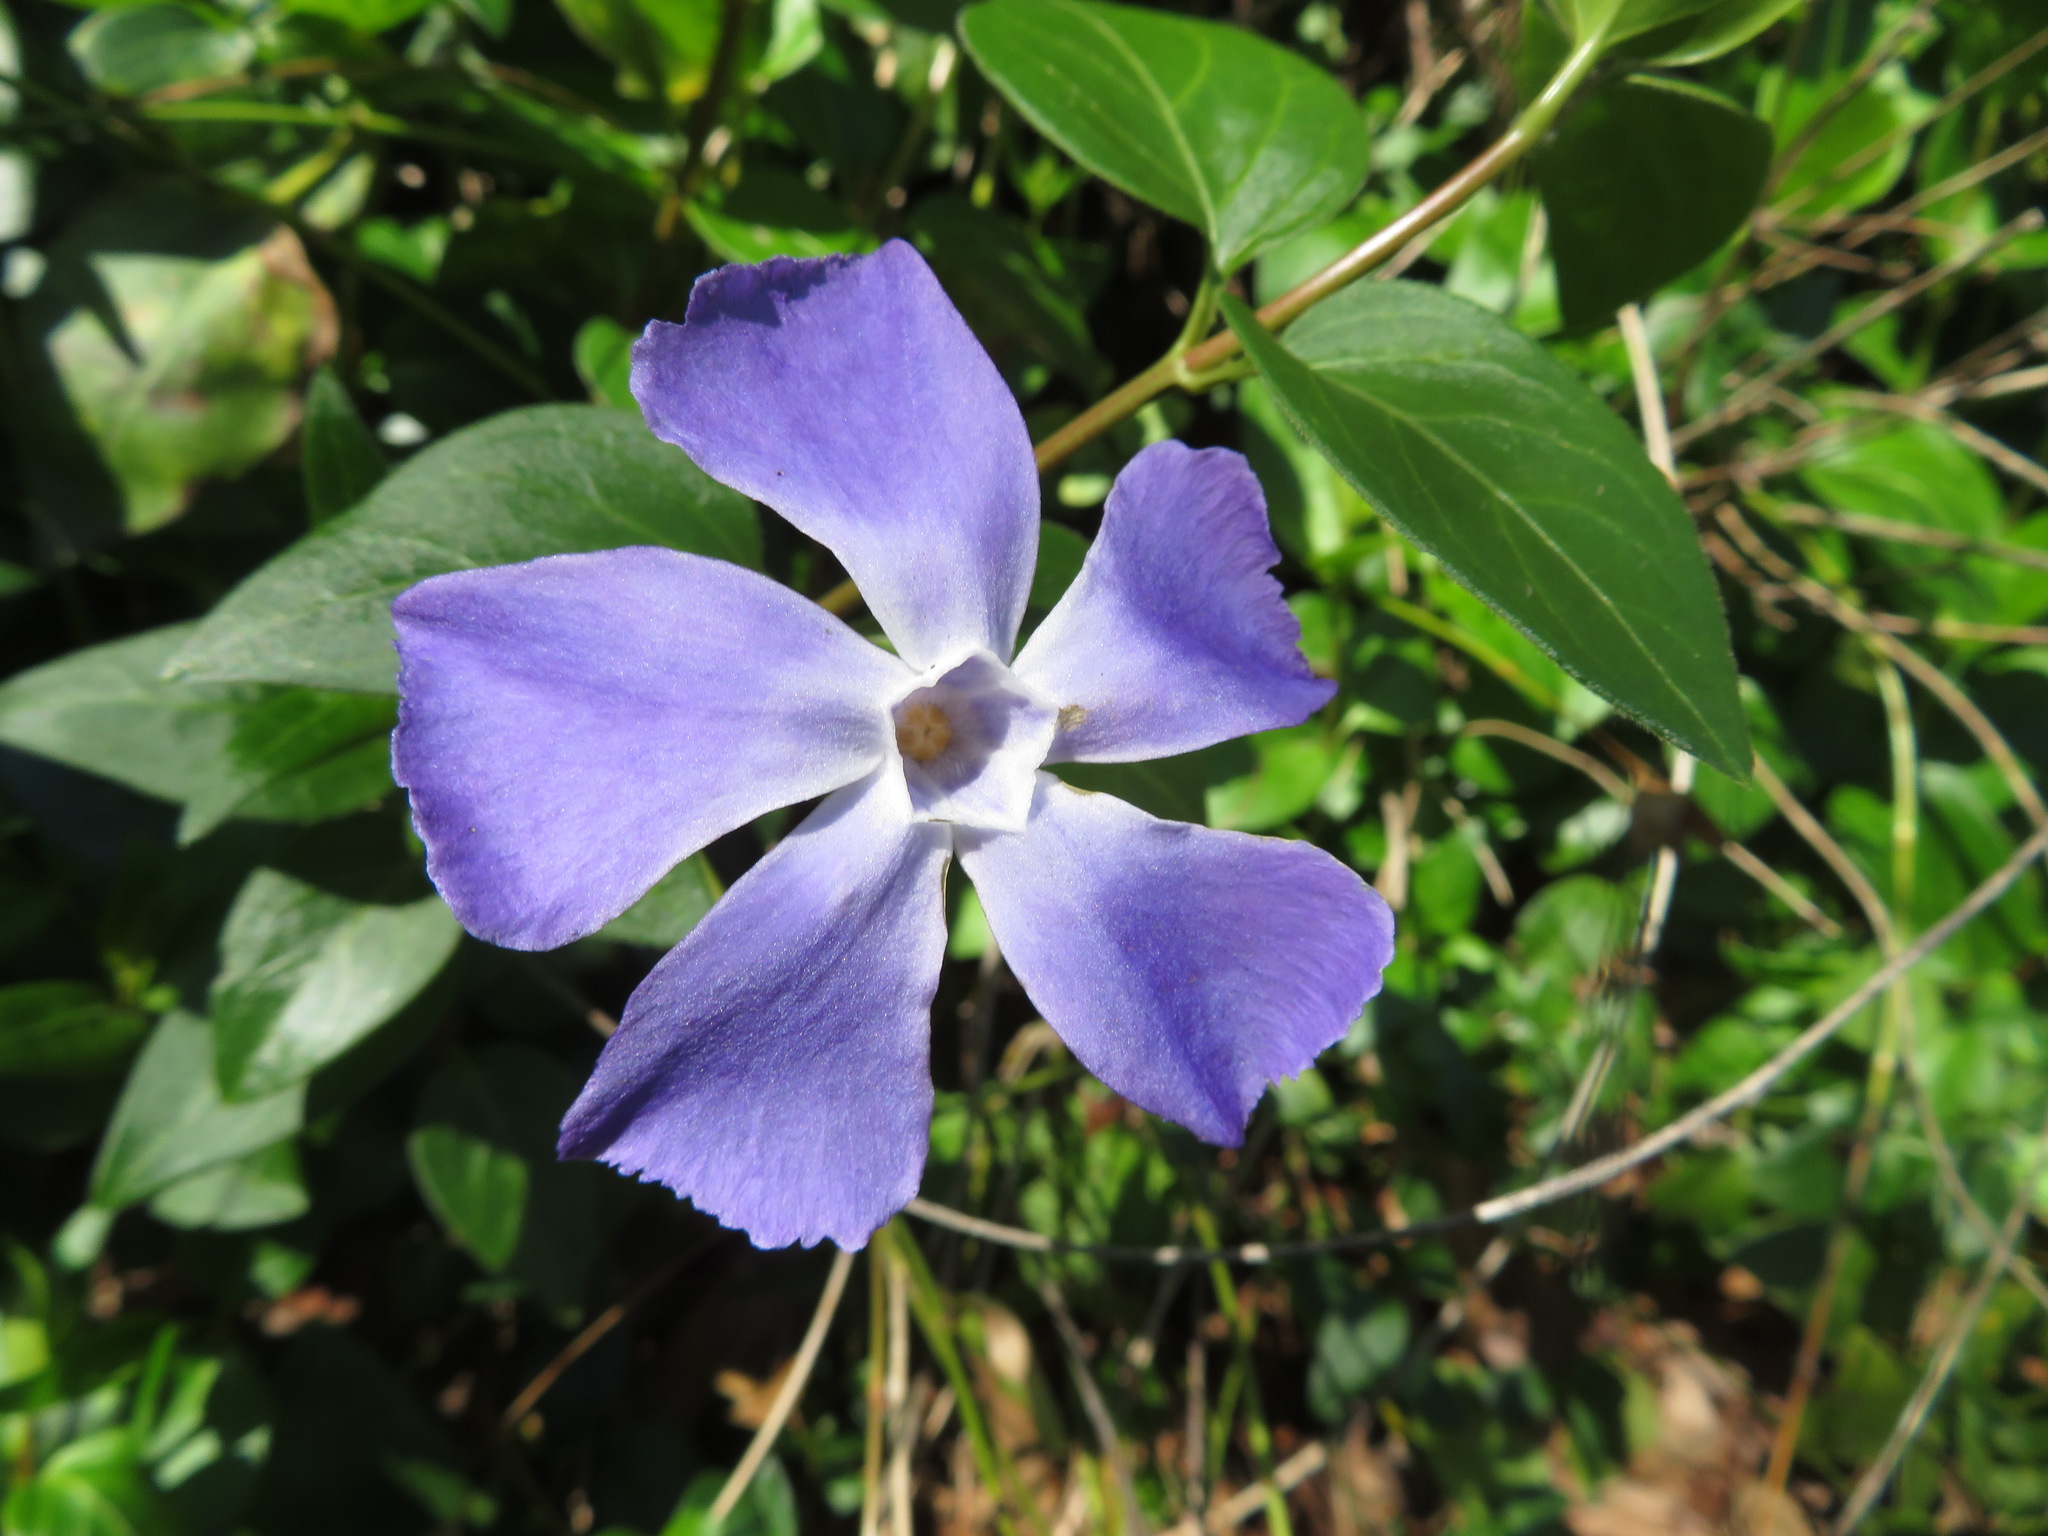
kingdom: Plantae
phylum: Tracheophyta
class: Magnoliopsida
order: Gentianales
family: Apocynaceae
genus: Vinca
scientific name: Vinca major
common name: Greater periwinkle
